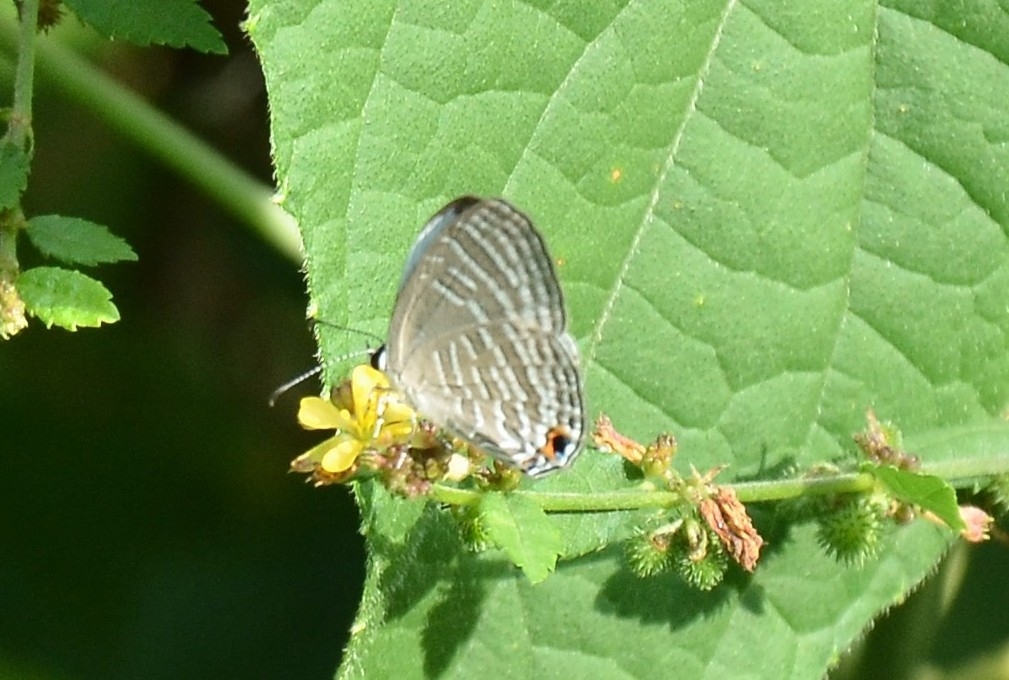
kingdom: Animalia
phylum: Arthropoda
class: Insecta
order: Lepidoptera
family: Lycaenidae
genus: Jamides
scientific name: Jamides celeno
